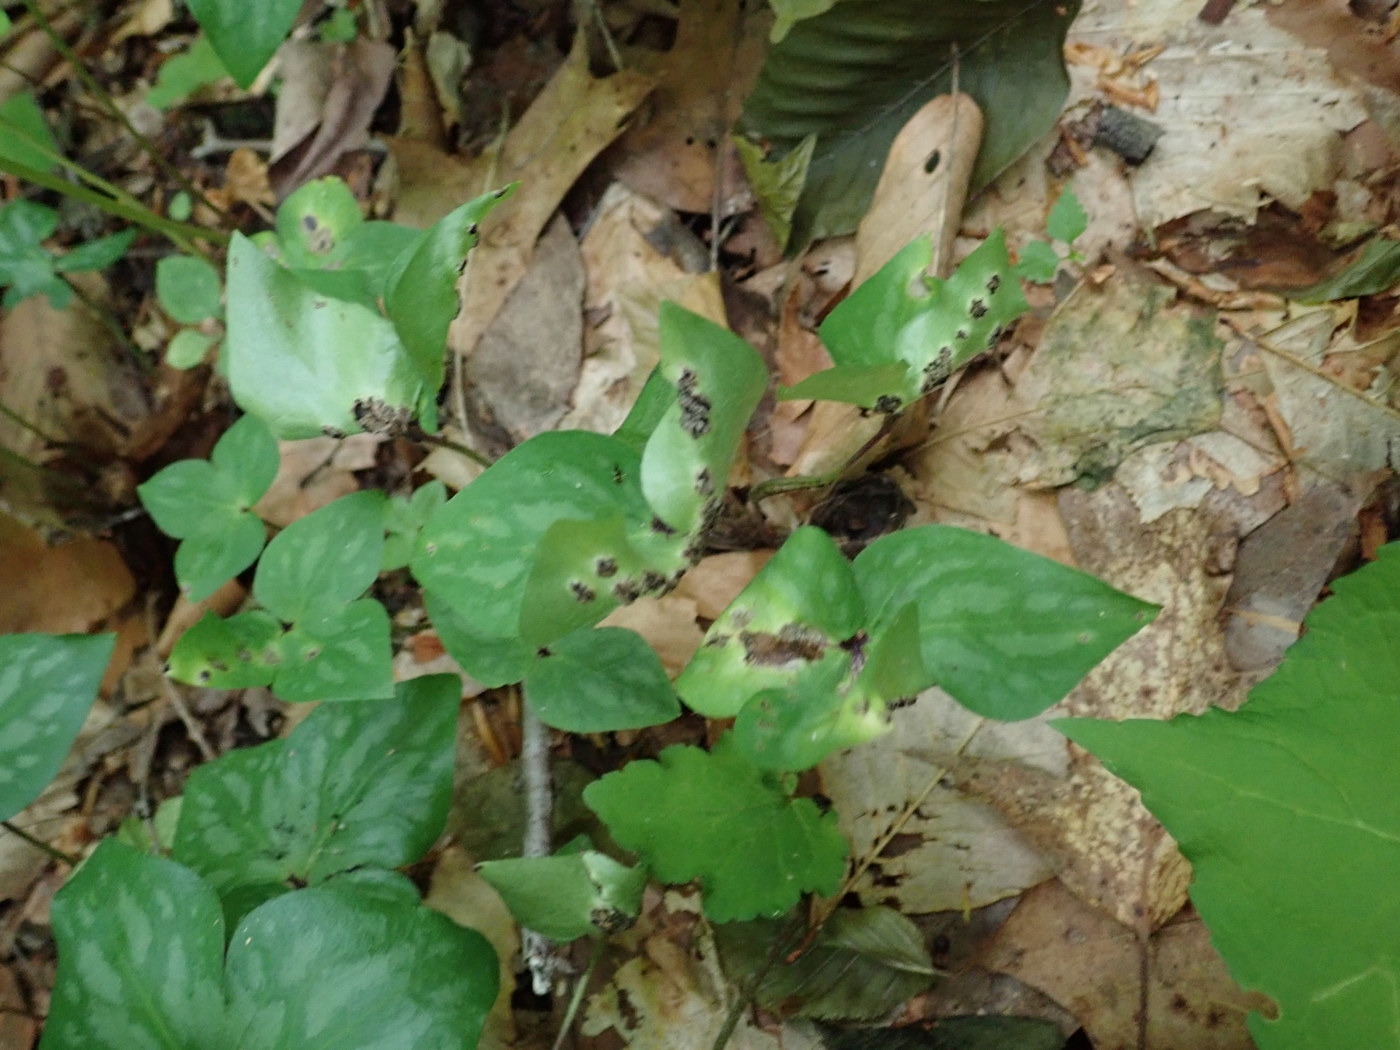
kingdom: Fungi
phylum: Basidiomycota
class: Ustilaginomycetes
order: Urocystidales
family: Urocystidaceae
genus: Urocystis
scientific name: Urocystis anemones
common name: Anemone smut
